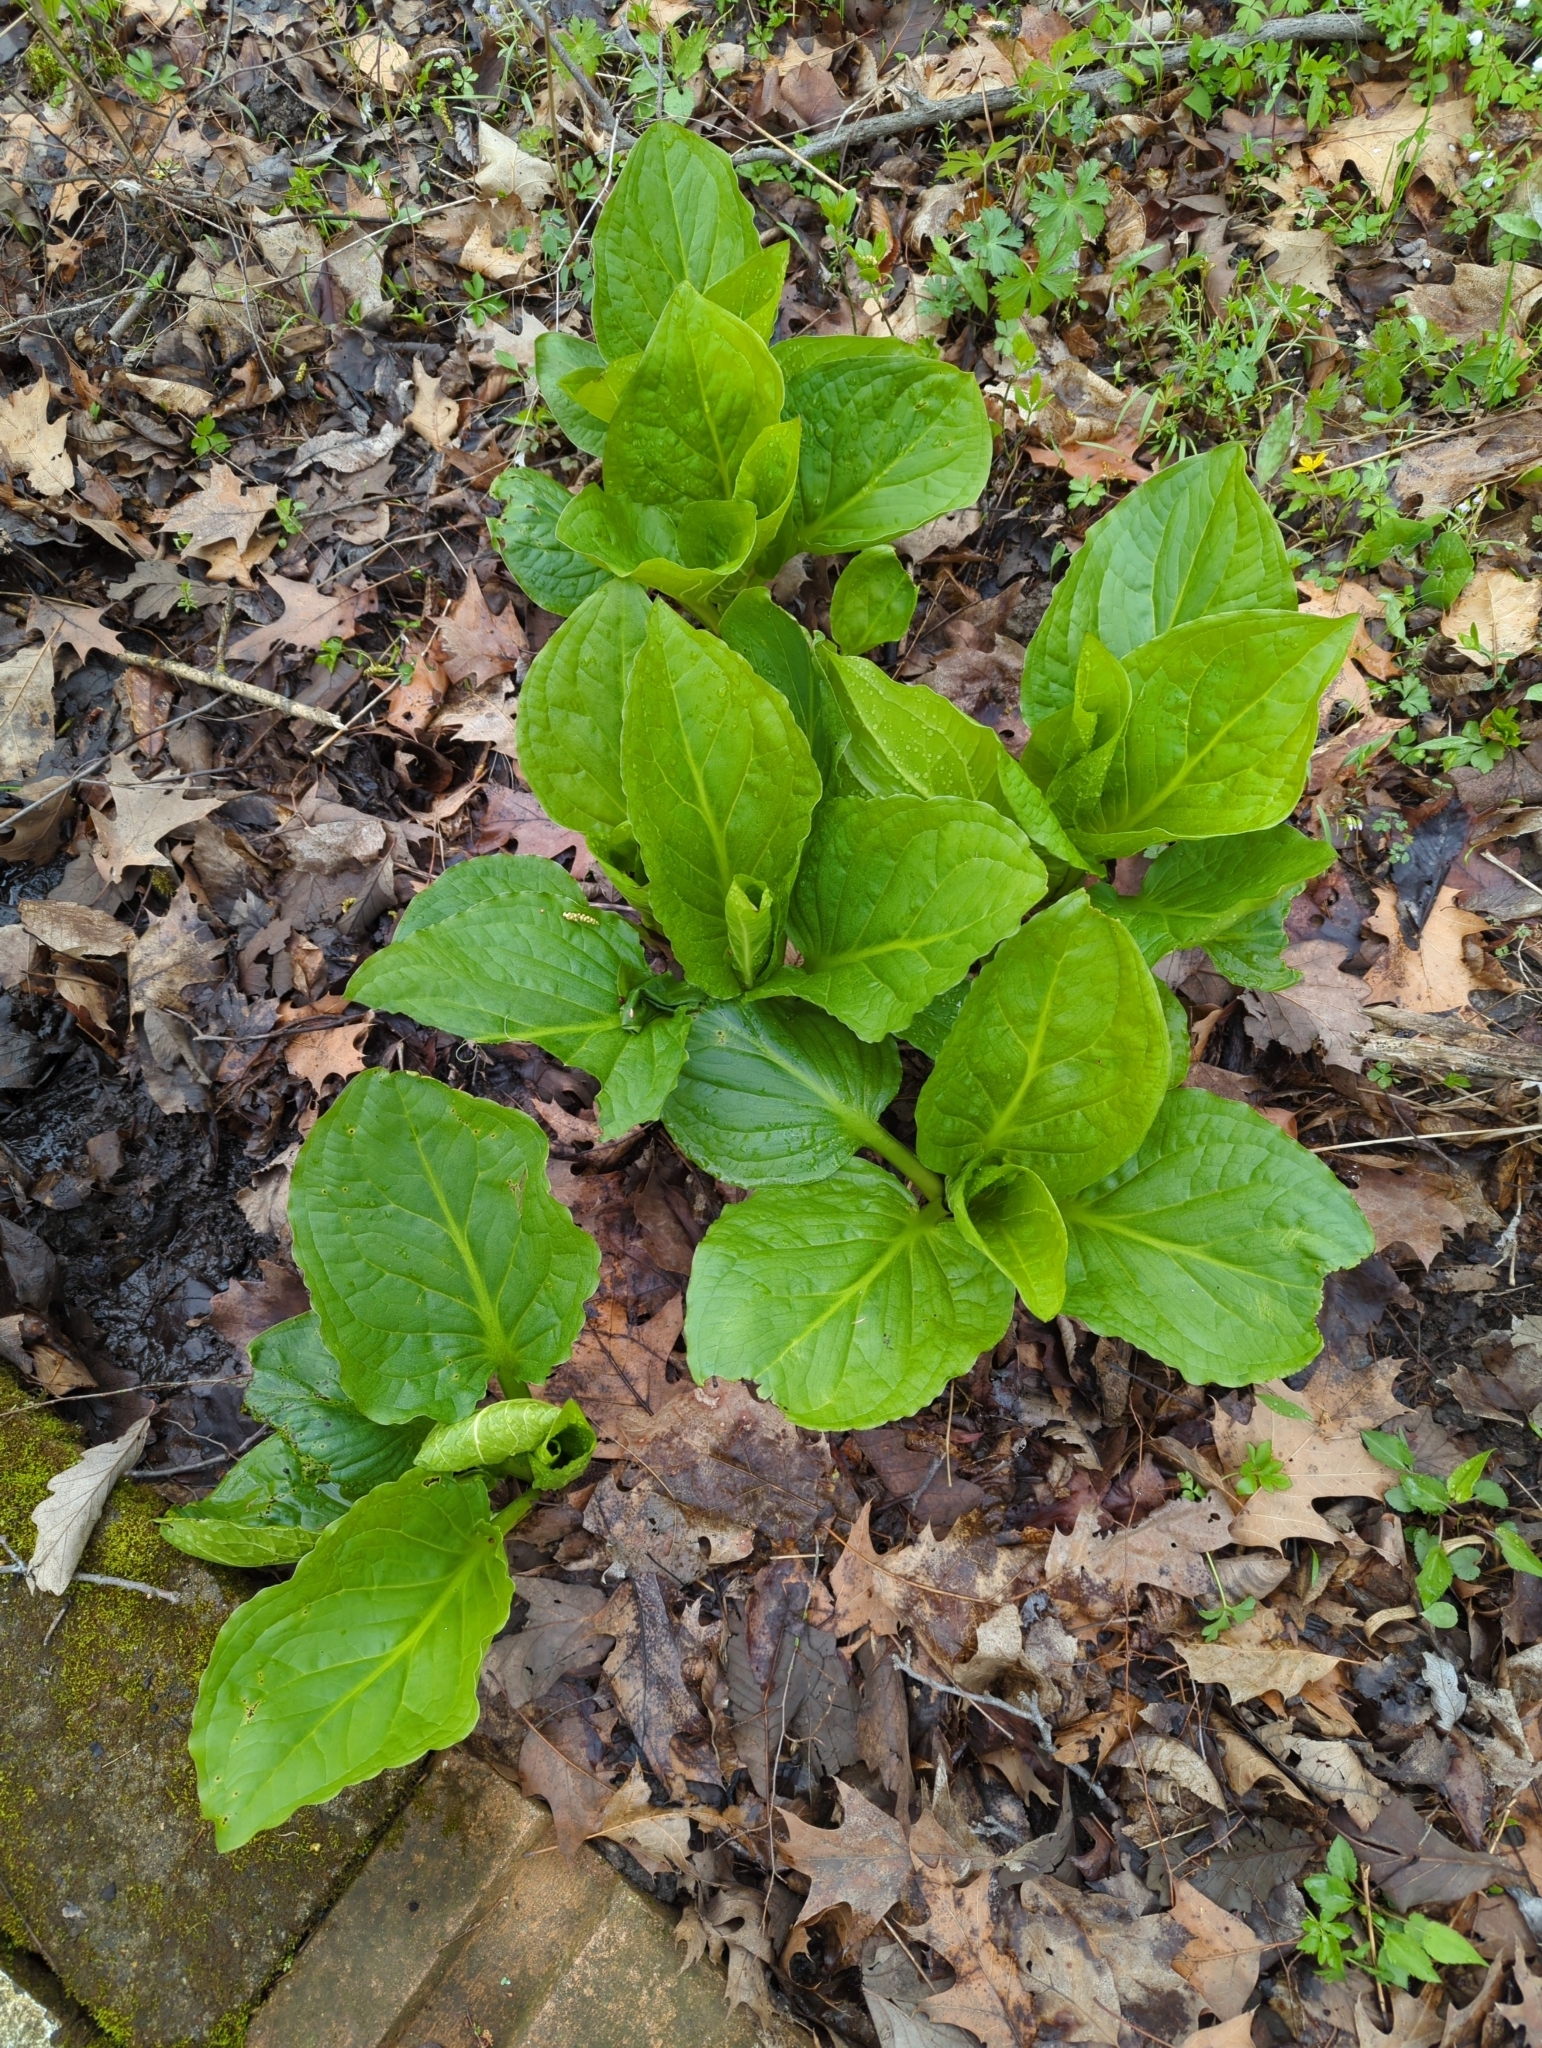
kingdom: Plantae
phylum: Tracheophyta
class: Liliopsida
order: Alismatales
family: Araceae
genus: Symplocarpus
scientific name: Symplocarpus foetidus
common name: Eastern skunk cabbage
